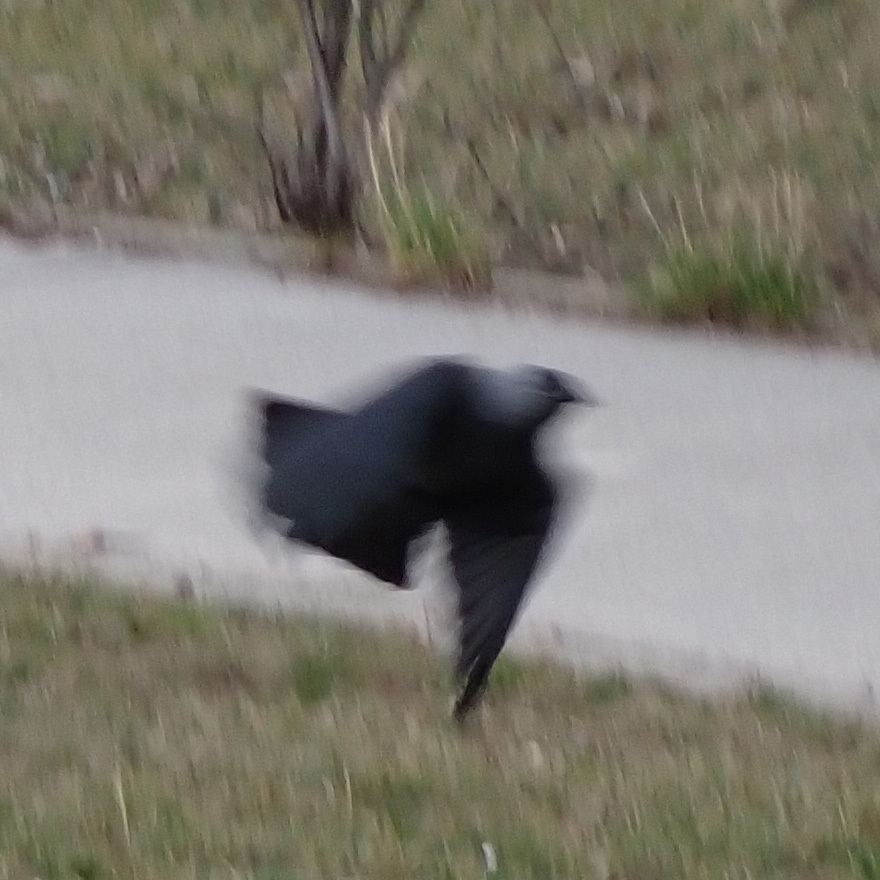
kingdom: Animalia
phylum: Chordata
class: Aves
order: Passeriformes
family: Corvidae
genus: Coloeus
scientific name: Coloeus monedula
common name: Western jackdaw
